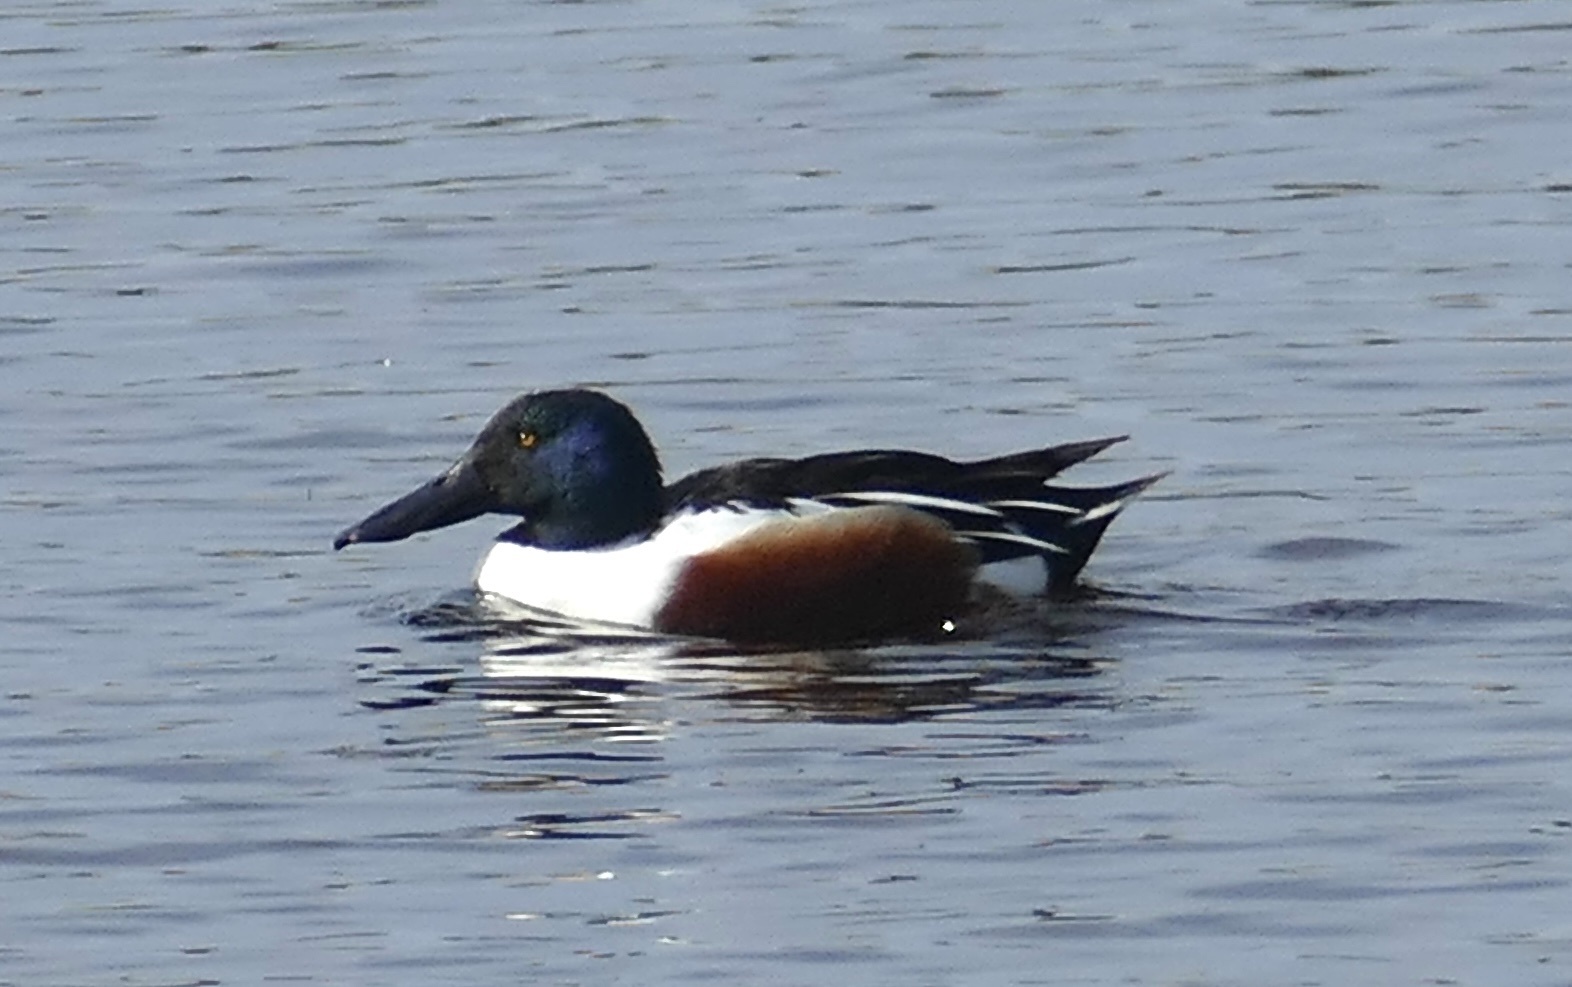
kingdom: Animalia
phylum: Chordata
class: Aves
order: Anseriformes
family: Anatidae
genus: Spatula
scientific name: Spatula clypeata
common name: Northern shoveler
